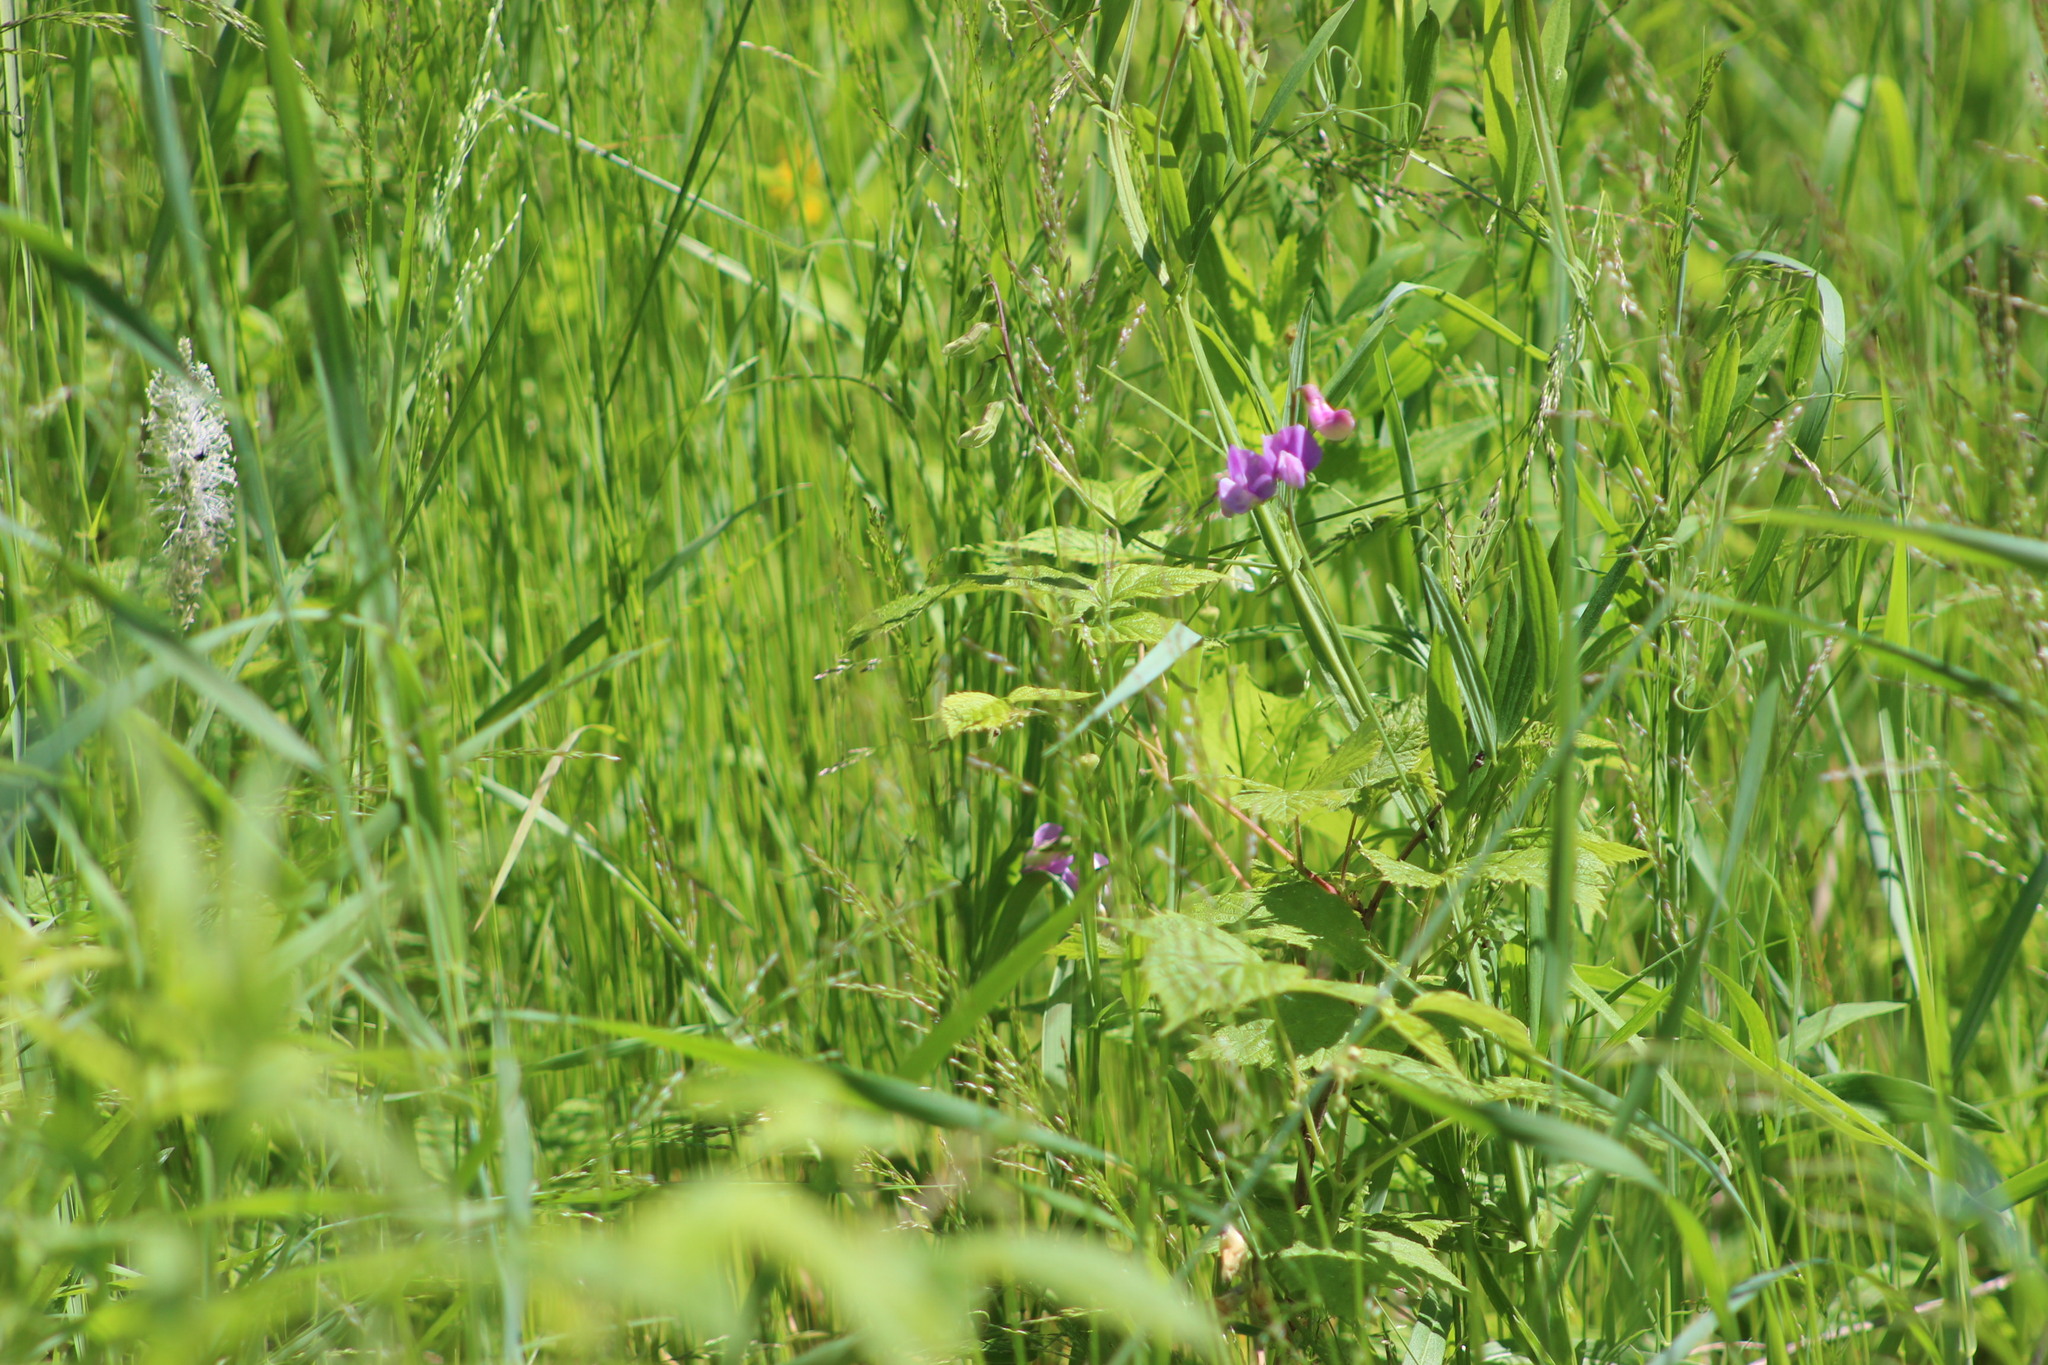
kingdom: Plantae
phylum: Tracheophyta
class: Magnoliopsida
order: Fabales
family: Fabaceae
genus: Lathyrus
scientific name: Lathyrus palustris
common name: Marsh pea
